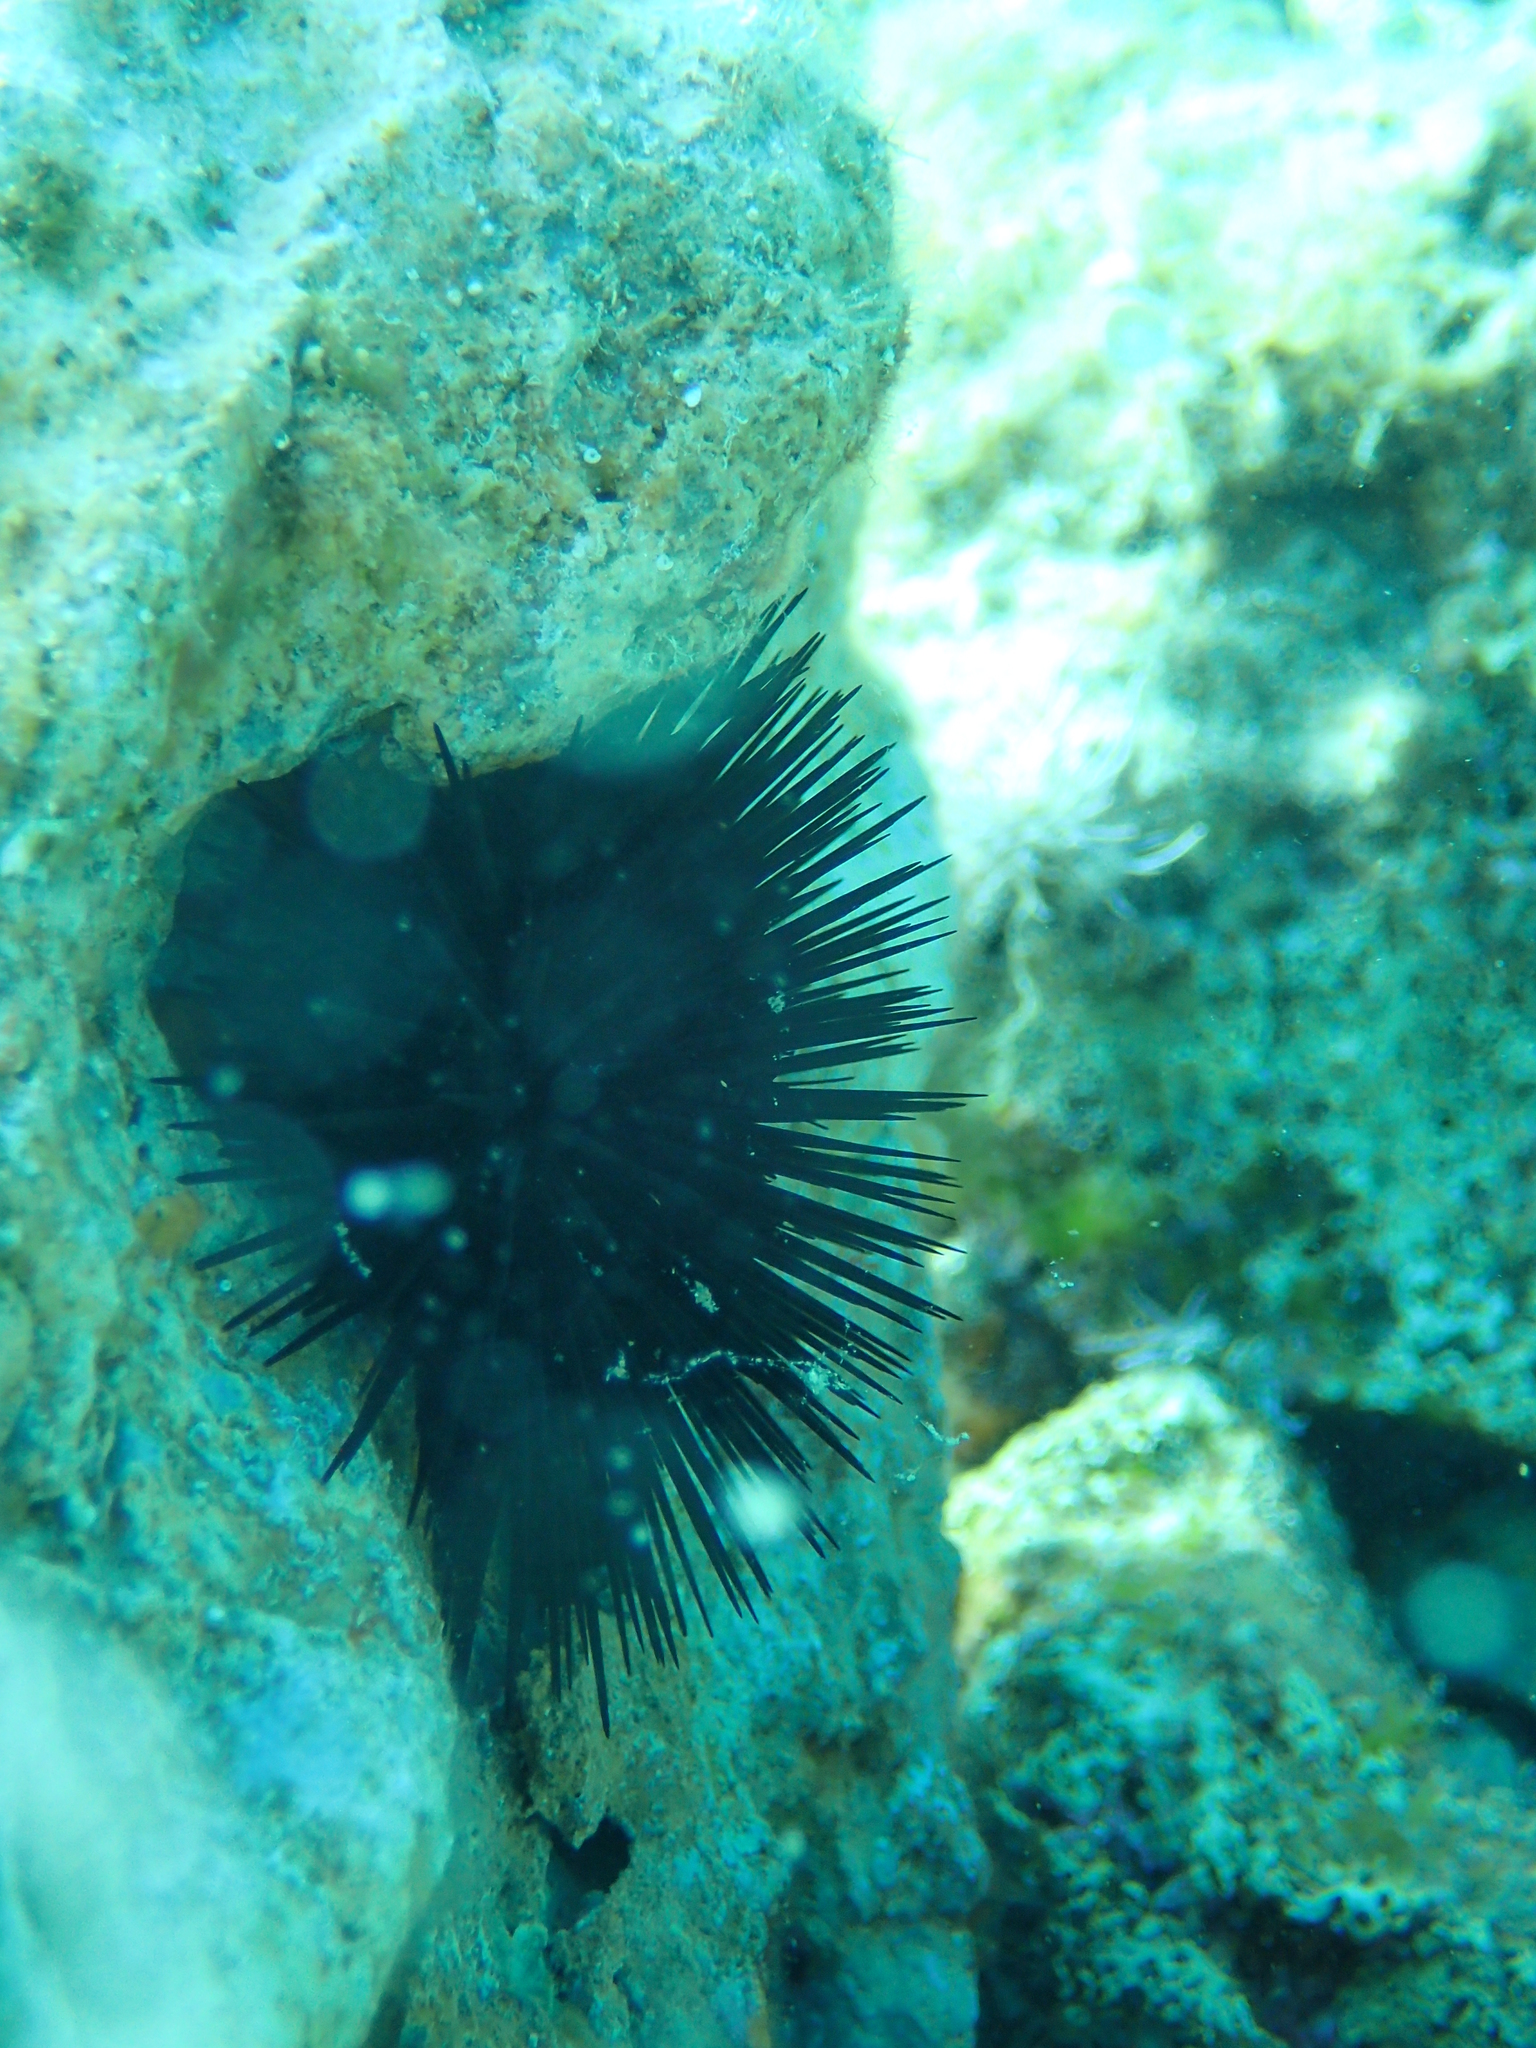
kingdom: Animalia
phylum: Echinodermata
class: Echinoidea
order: Arbacioida
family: Arbaciidae
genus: Arbacia
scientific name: Arbacia lixula
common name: Black sea urchin
